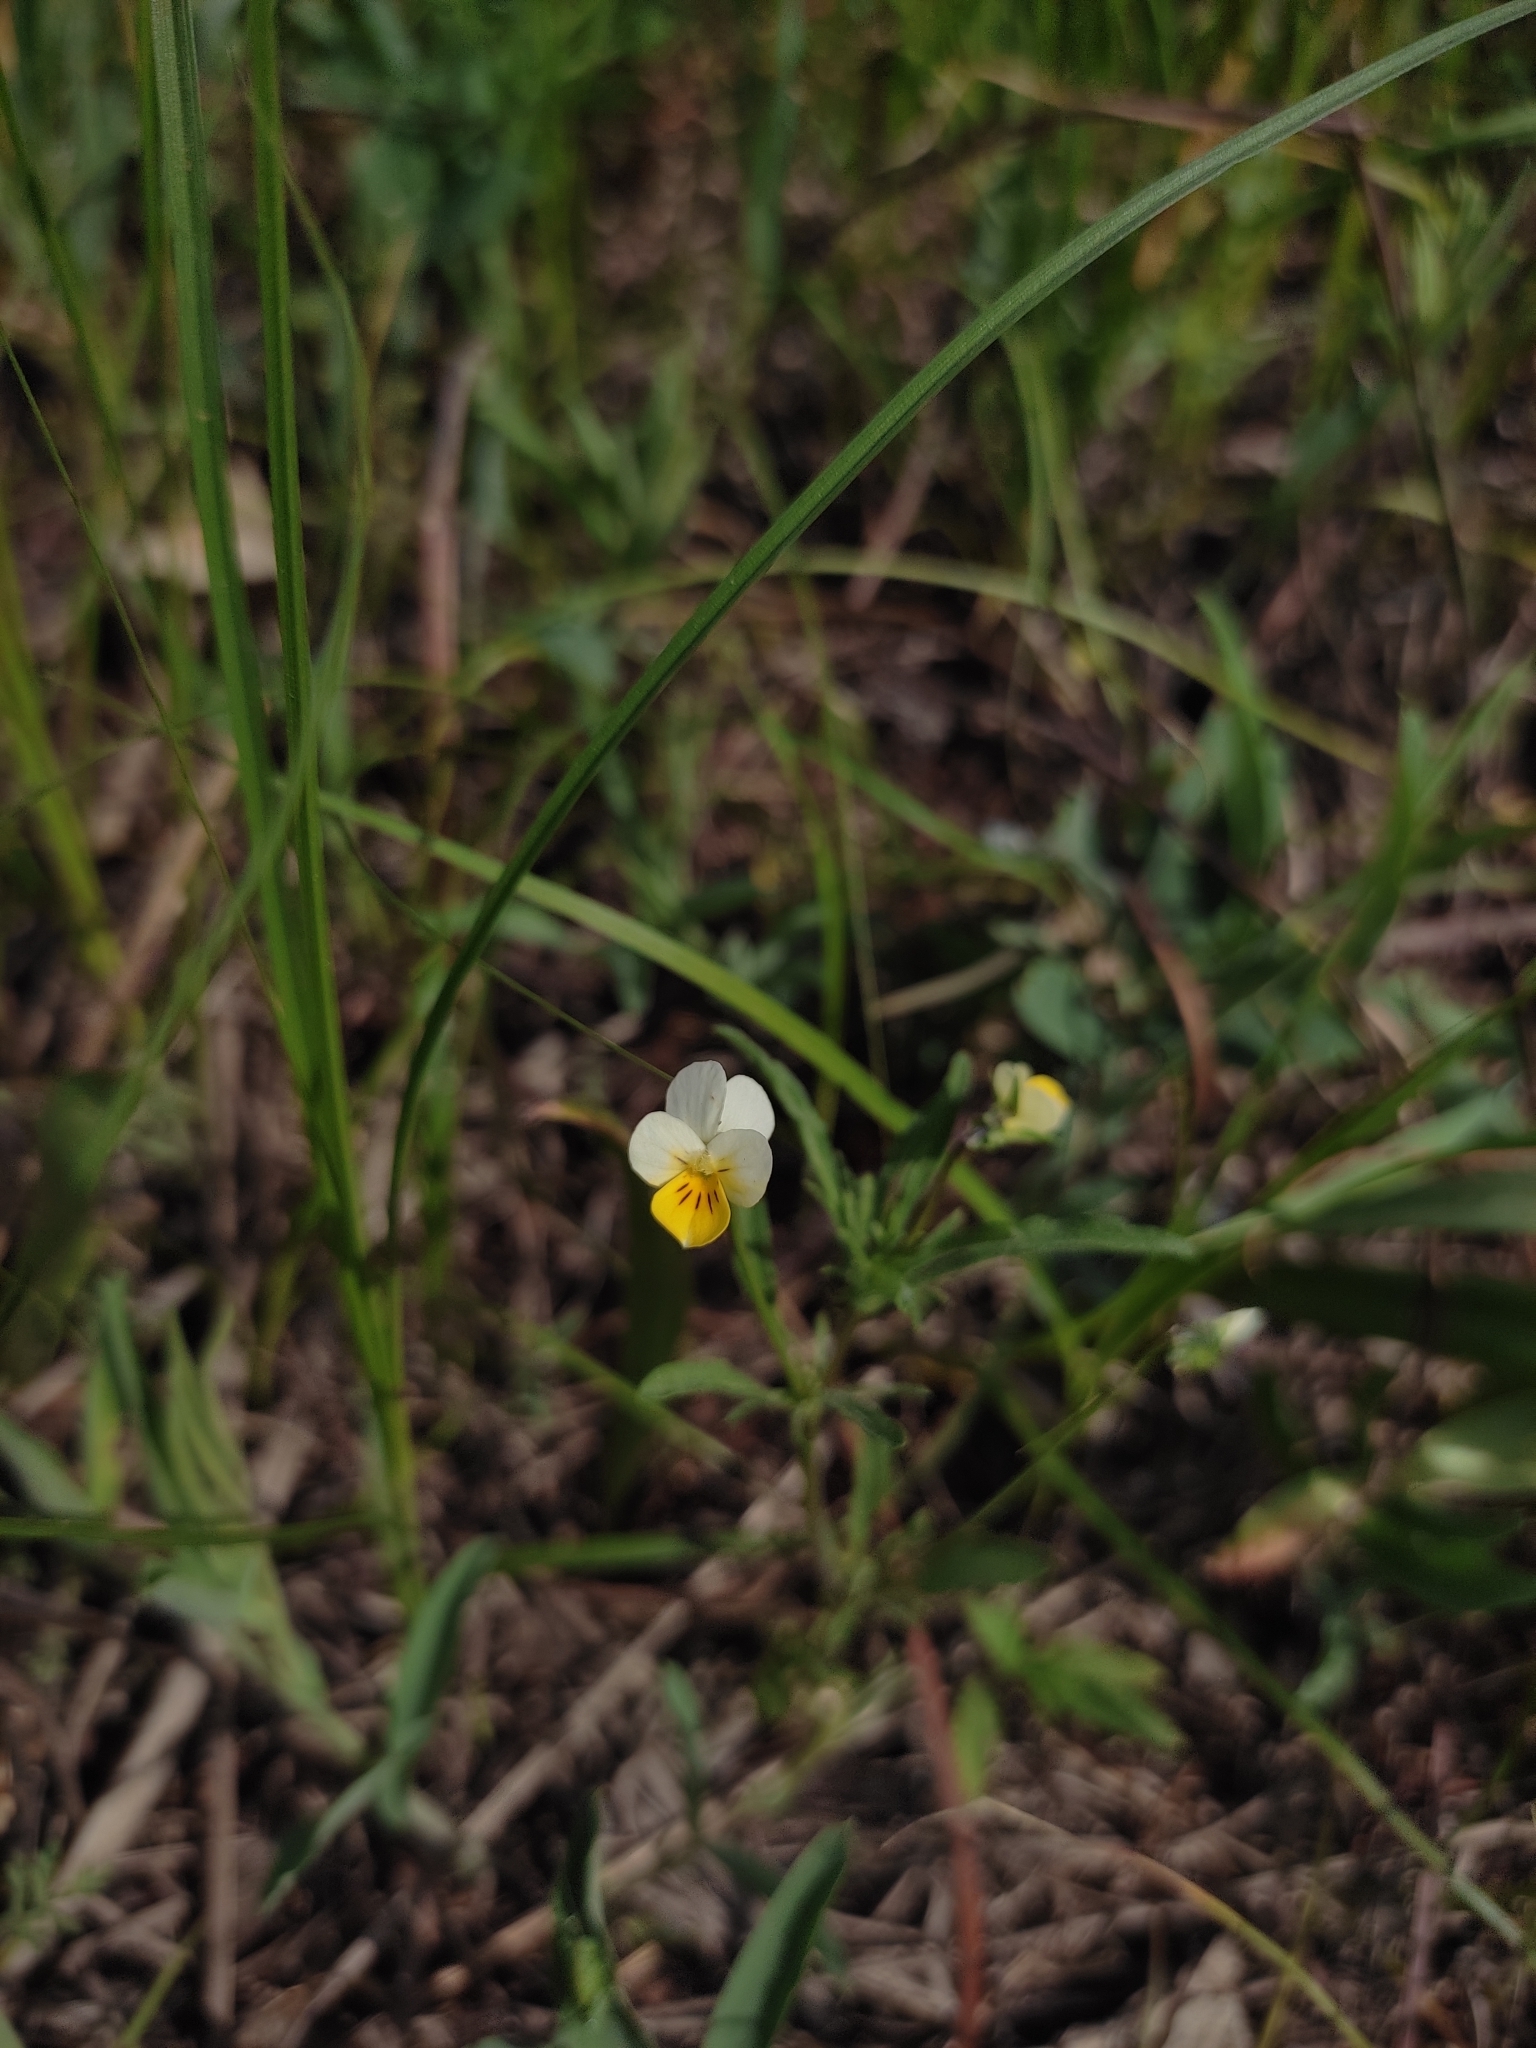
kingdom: Plantae
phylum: Tracheophyta
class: Magnoliopsida
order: Malpighiales
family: Violaceae
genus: Viola
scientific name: Viola arvensis
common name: Field pansy
